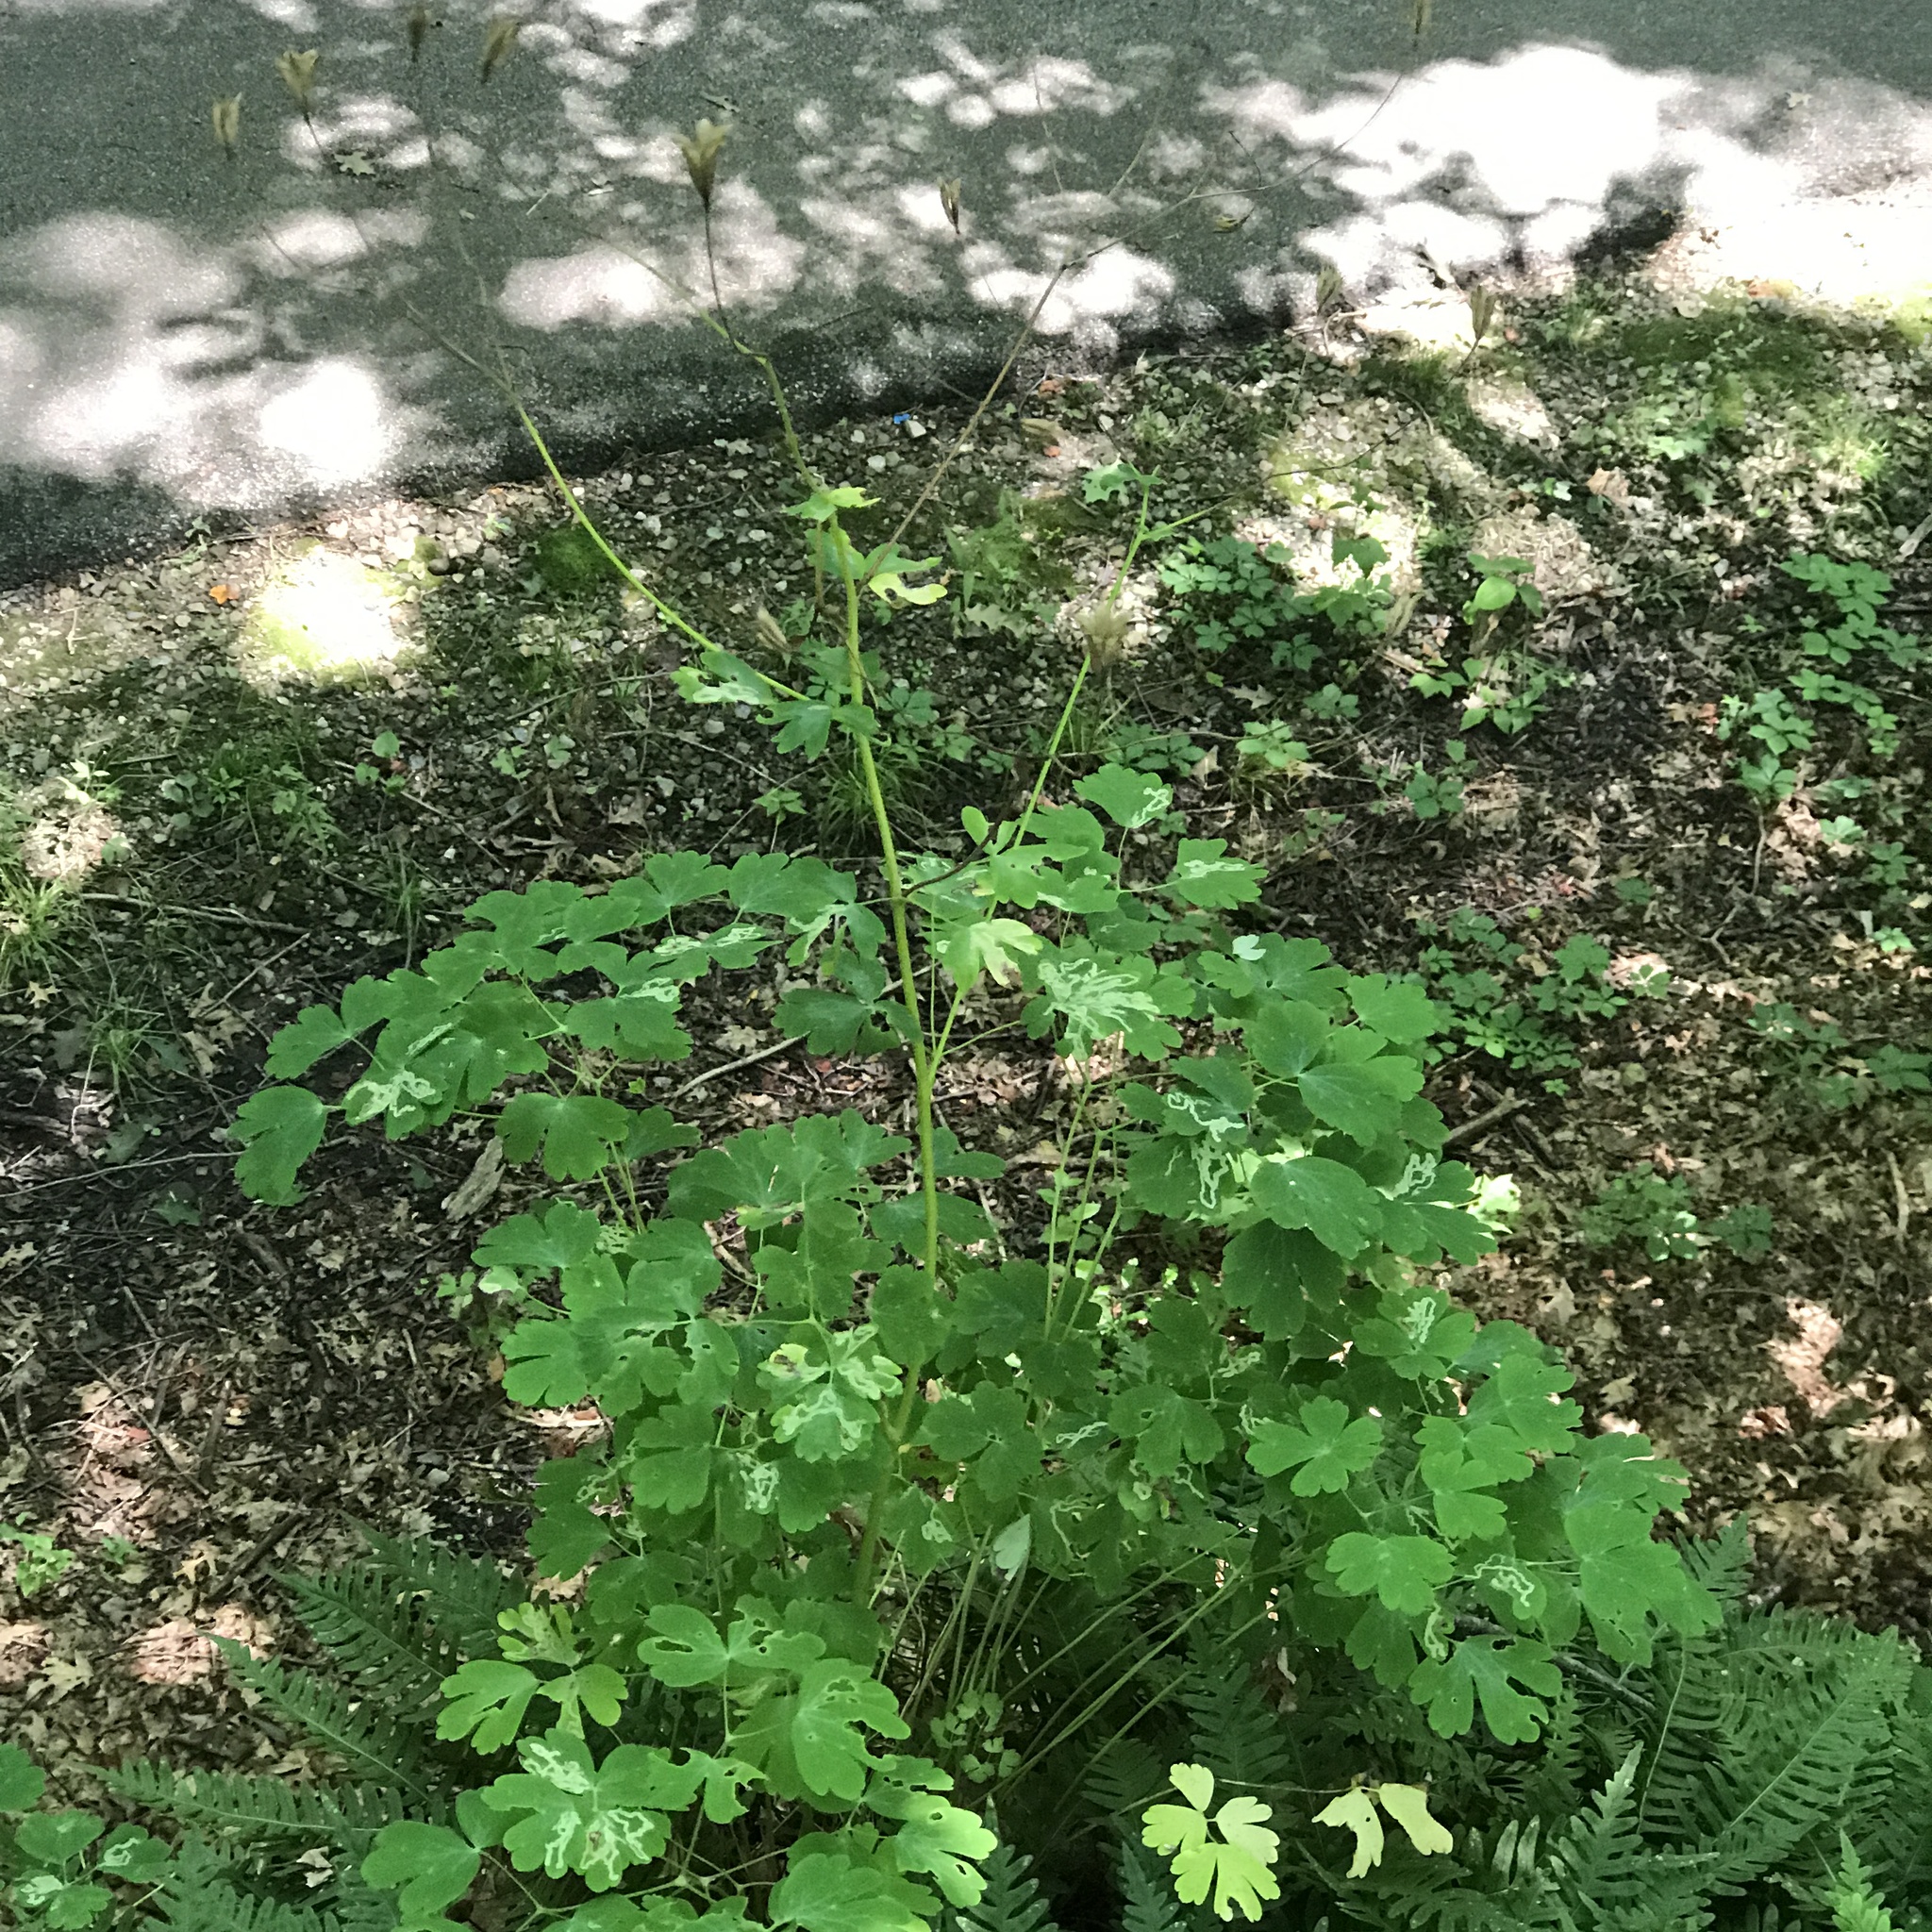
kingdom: Plantae
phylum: Tracheophyta
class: Magnoliopsida
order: Ranunculales
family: Ranunculaceae
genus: Aquilegia
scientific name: Aquilegia canadensis
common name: American columbine
